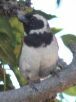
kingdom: Animalia
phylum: Chordata
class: Aves
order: Passeriformes
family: Passeridae
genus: Passer
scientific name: Passer melanurus
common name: Cape sparrow
